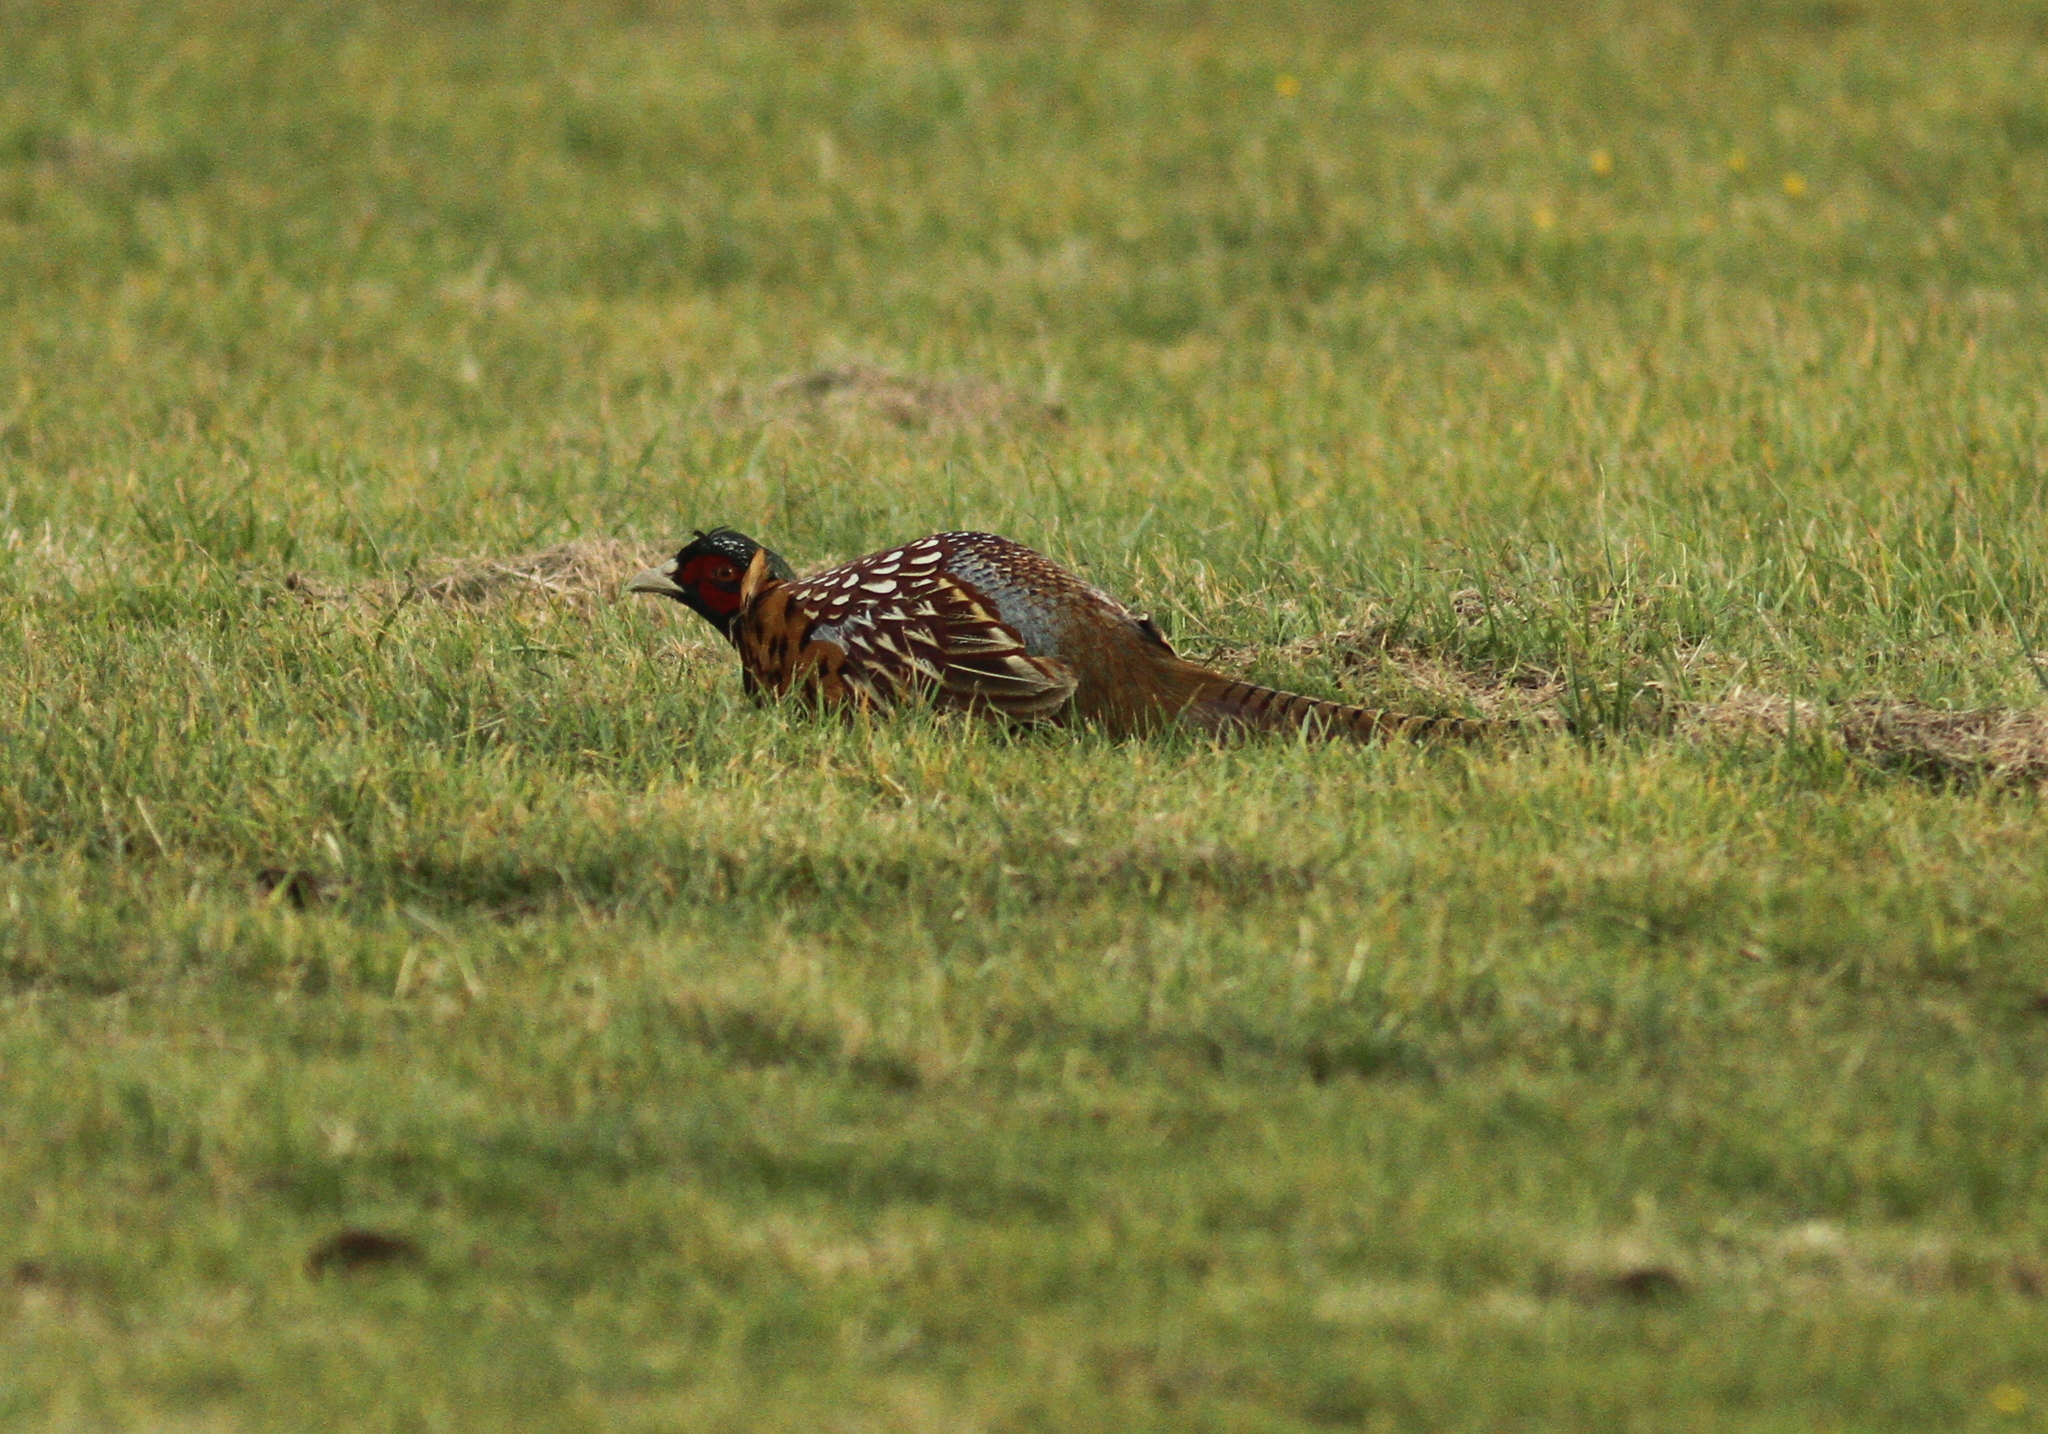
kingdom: Animalia
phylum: Chordata
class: Aves
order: Galliformes
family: Phasianidae
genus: Phasianus
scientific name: Phasianus colchicus
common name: Common pheasant
